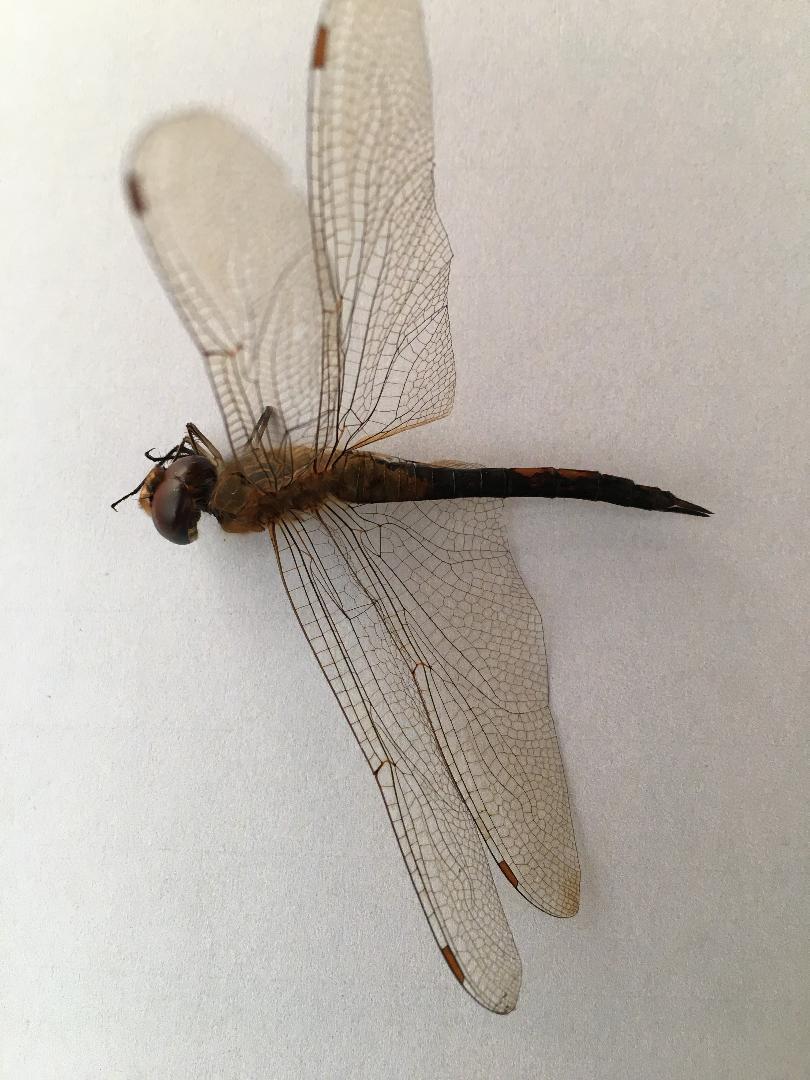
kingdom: Animalia
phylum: Arthropoda
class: Insecta
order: Odonata
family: Libellulidae
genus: Pantala
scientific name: Pantala flavescens
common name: Wandering glider
